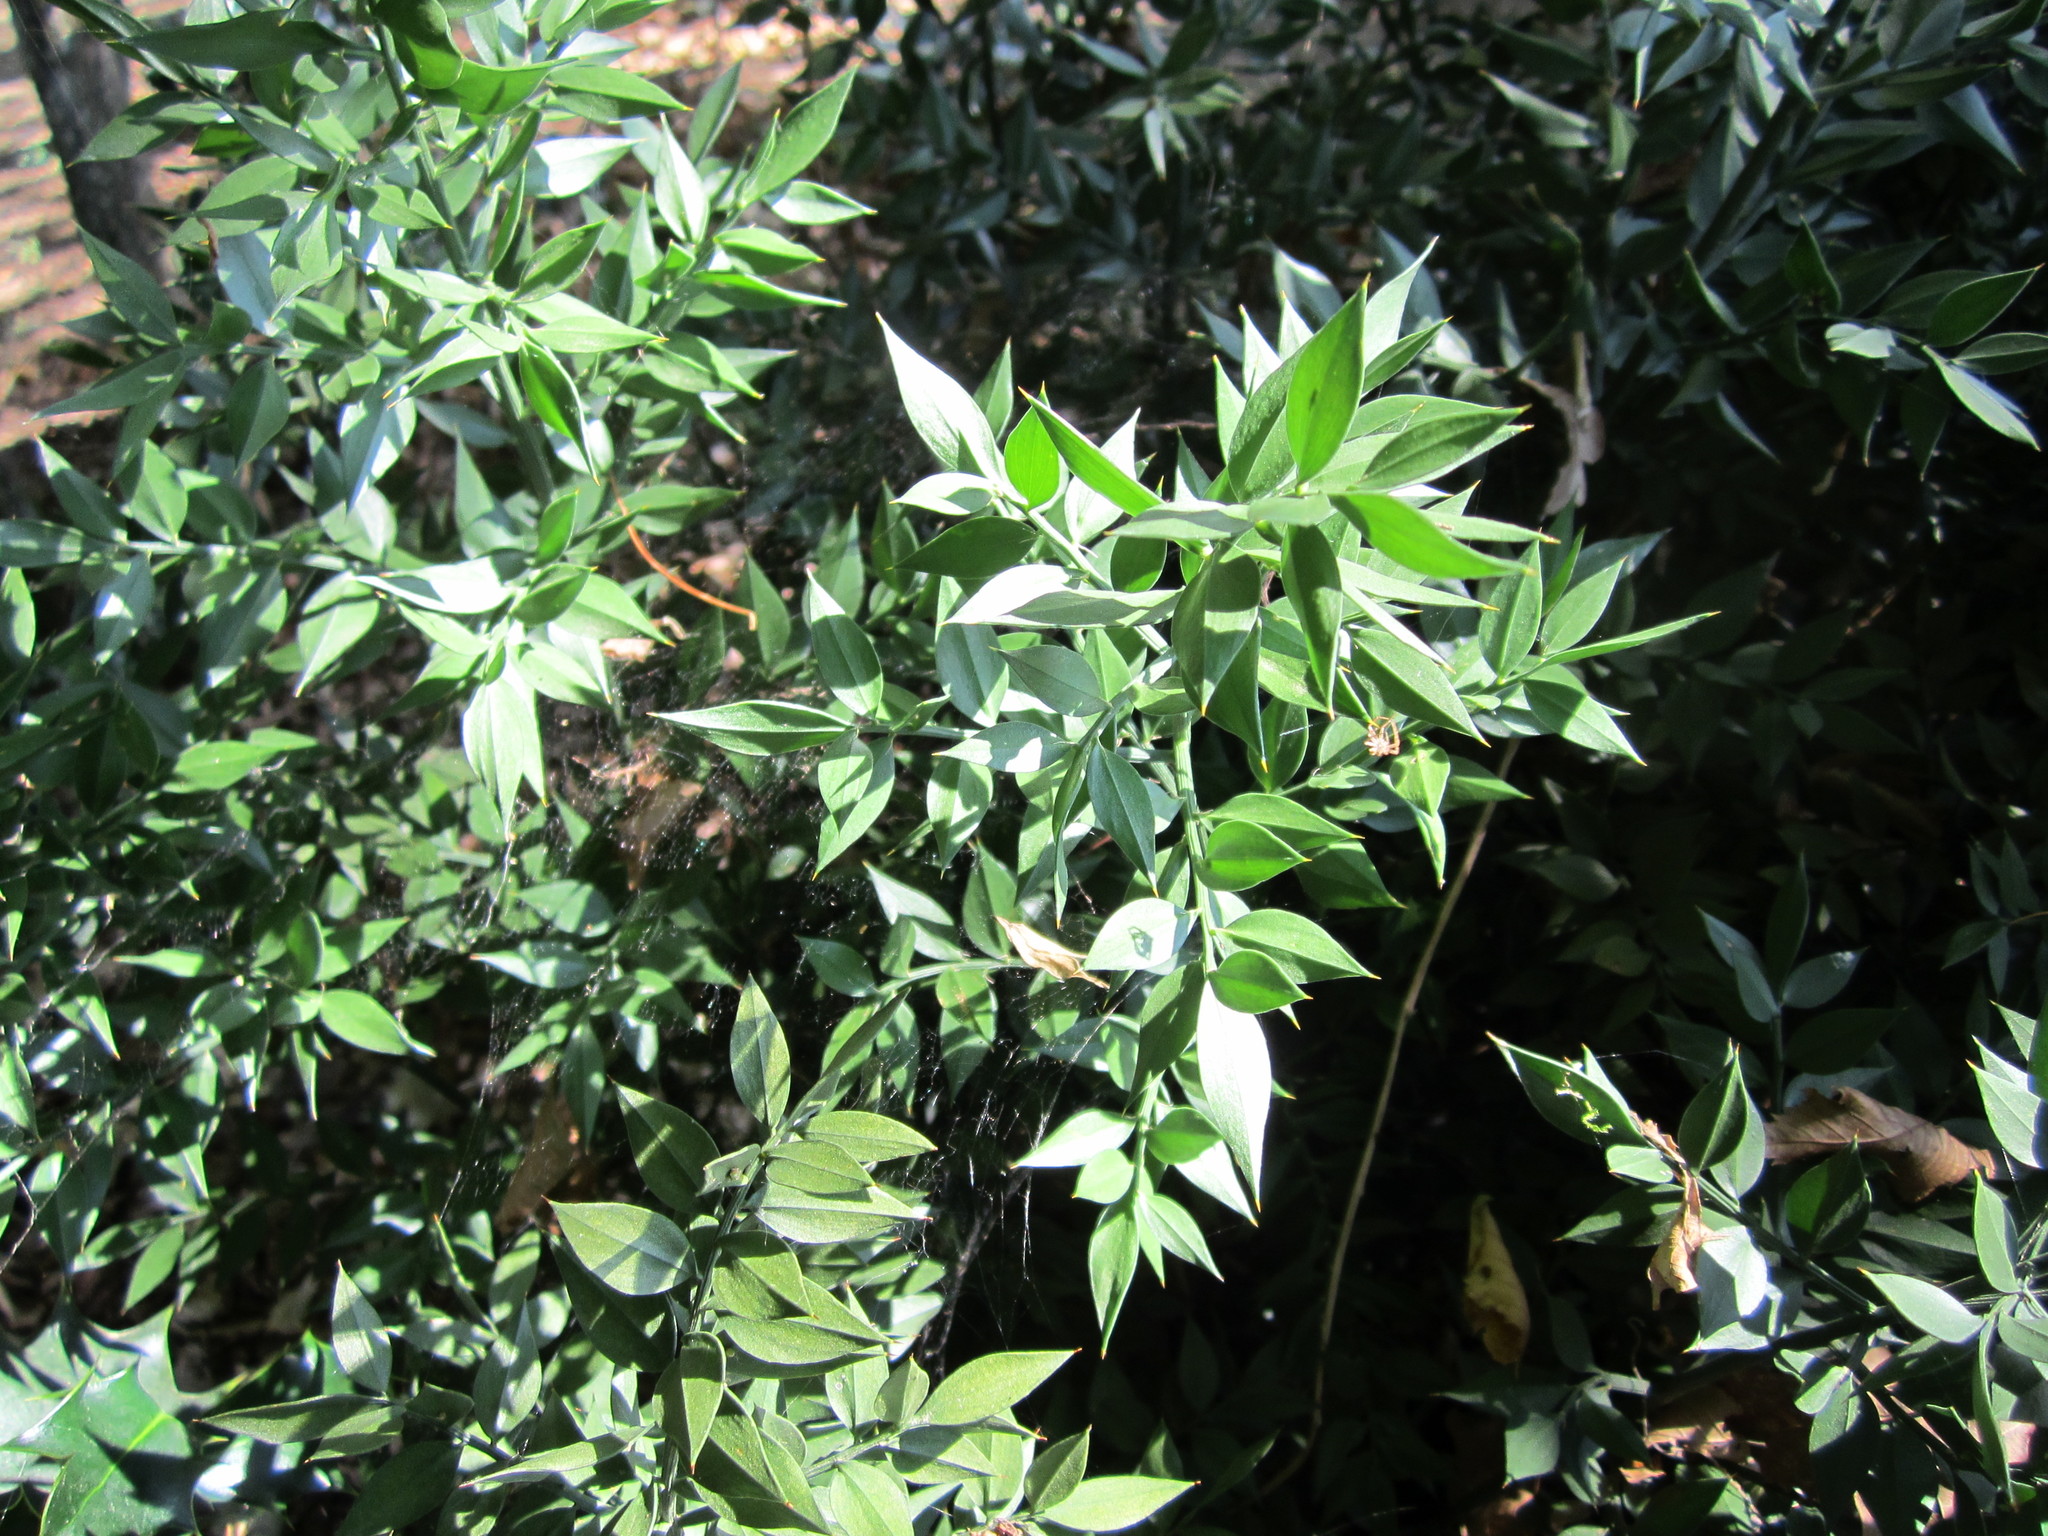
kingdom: Plantae
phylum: Tracheophyta
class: Liliopsida
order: Asparagales
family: Asparagaceae
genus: Ruscus
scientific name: Ruscus aculeatus
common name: Butcher's-broom
